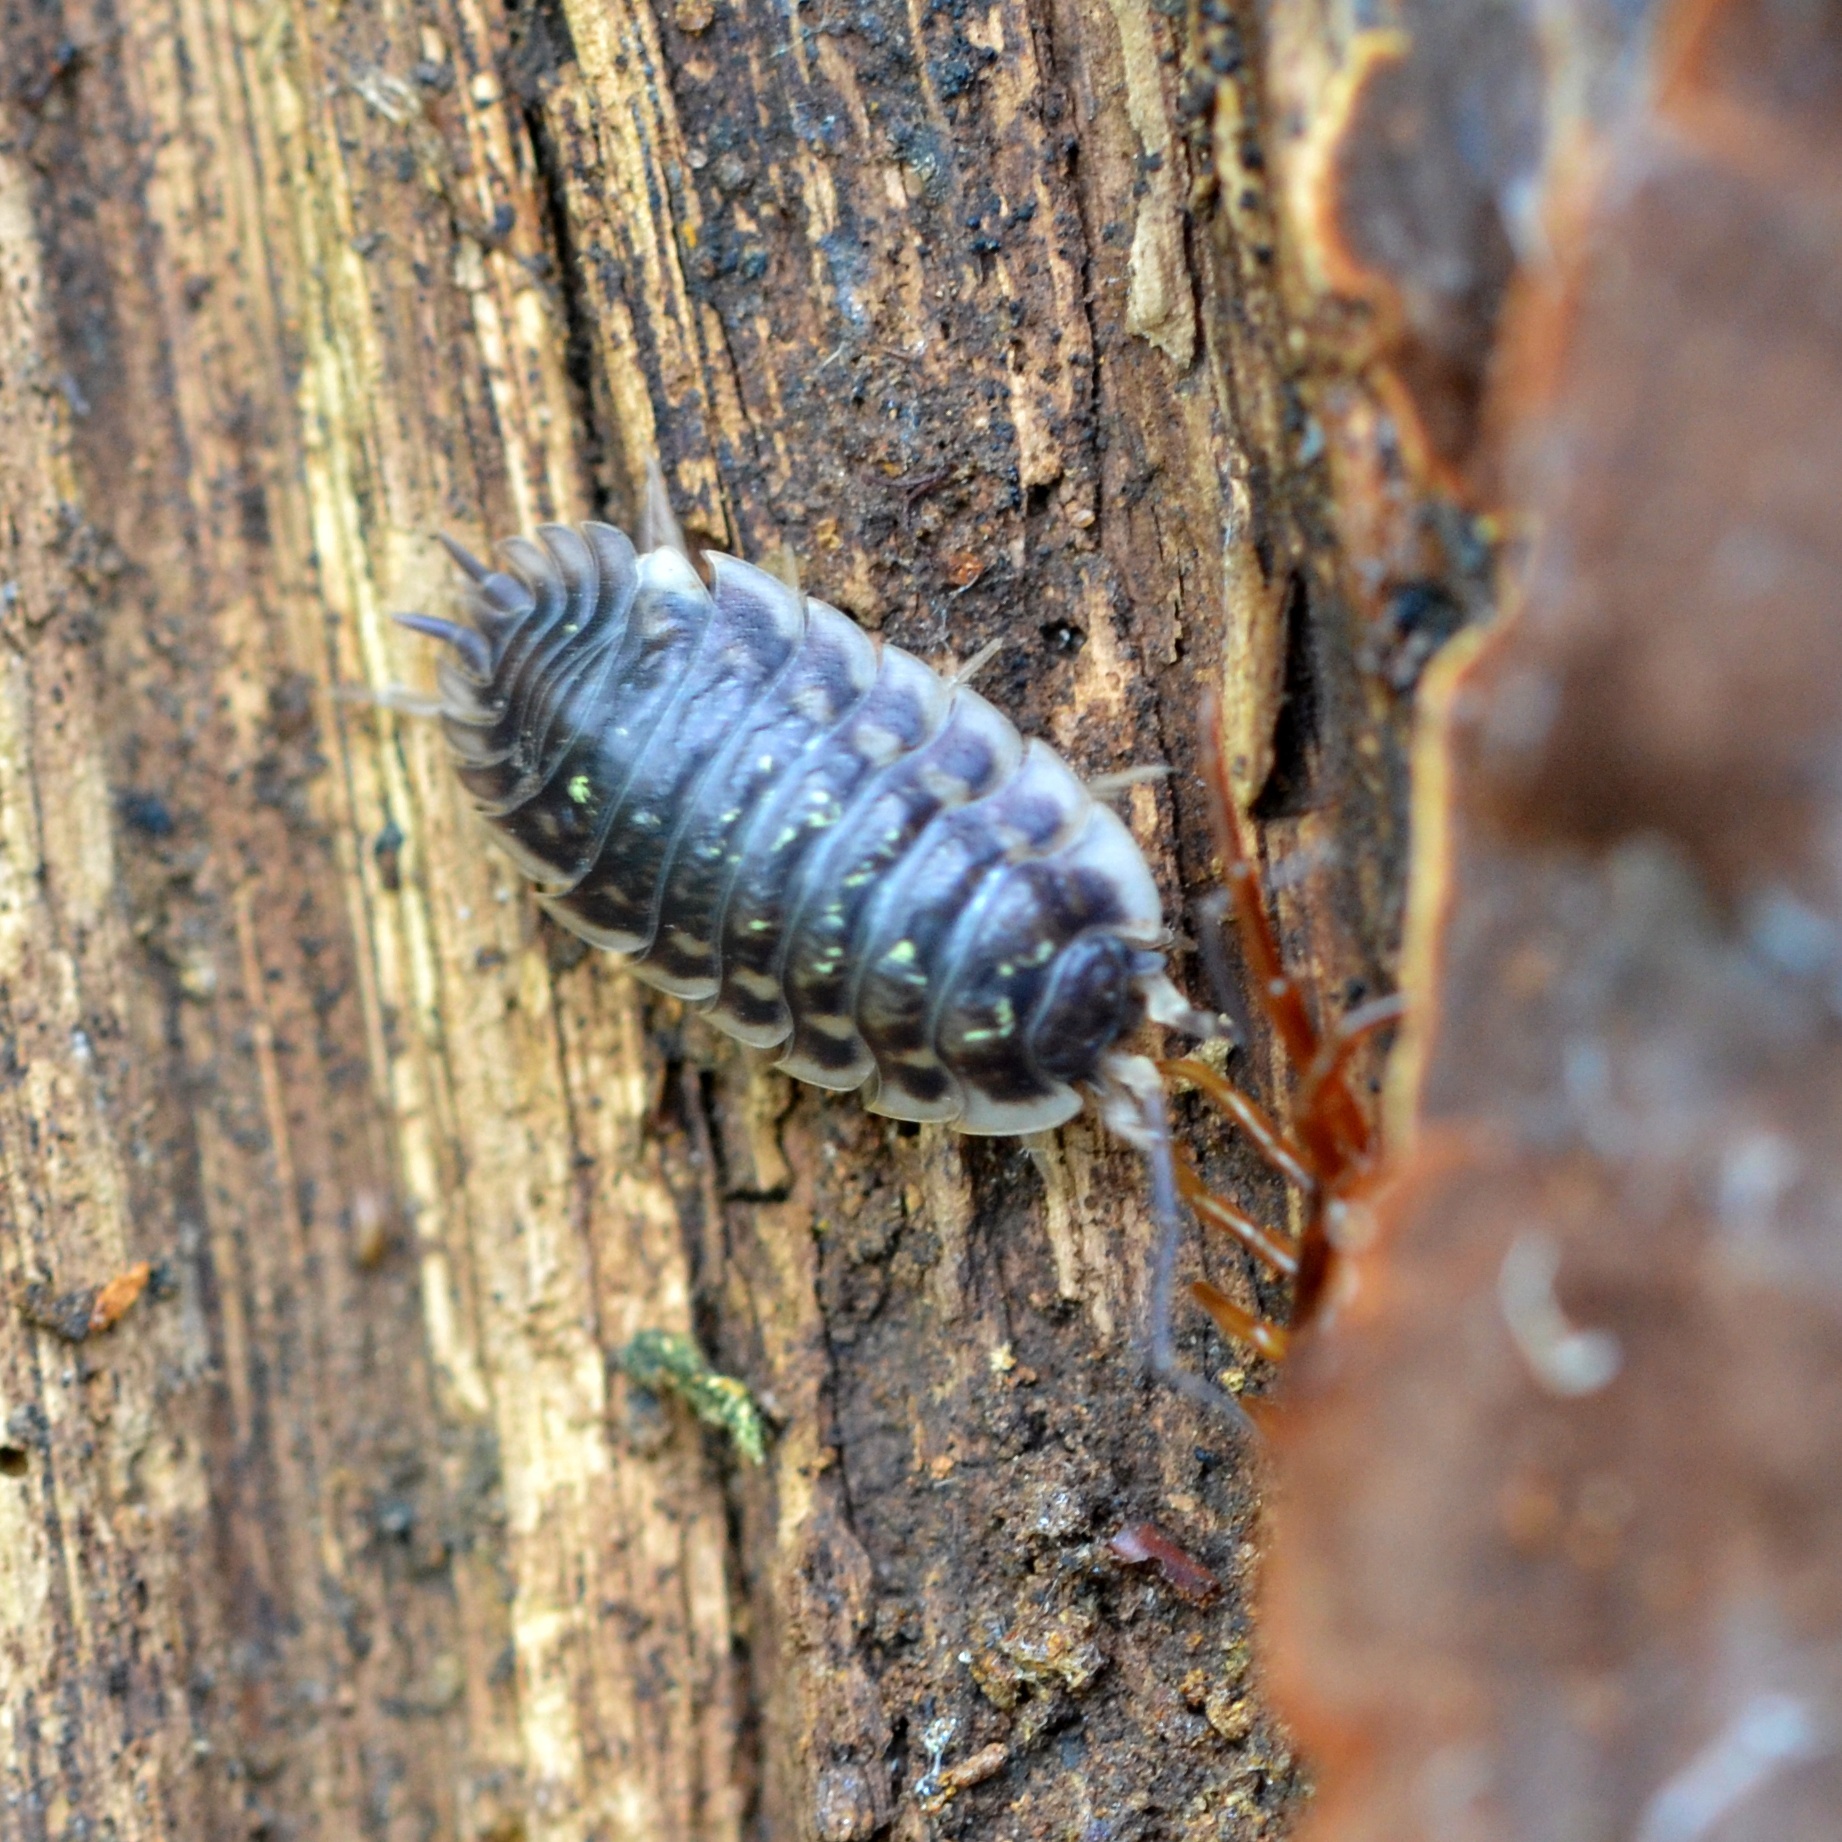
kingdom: Animalia
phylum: Arthropoda
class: Malacostraca
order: Isopoda
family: Oniscidae
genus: Oniscus
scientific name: Oniscus asellus
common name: Common shiny woodlouse
